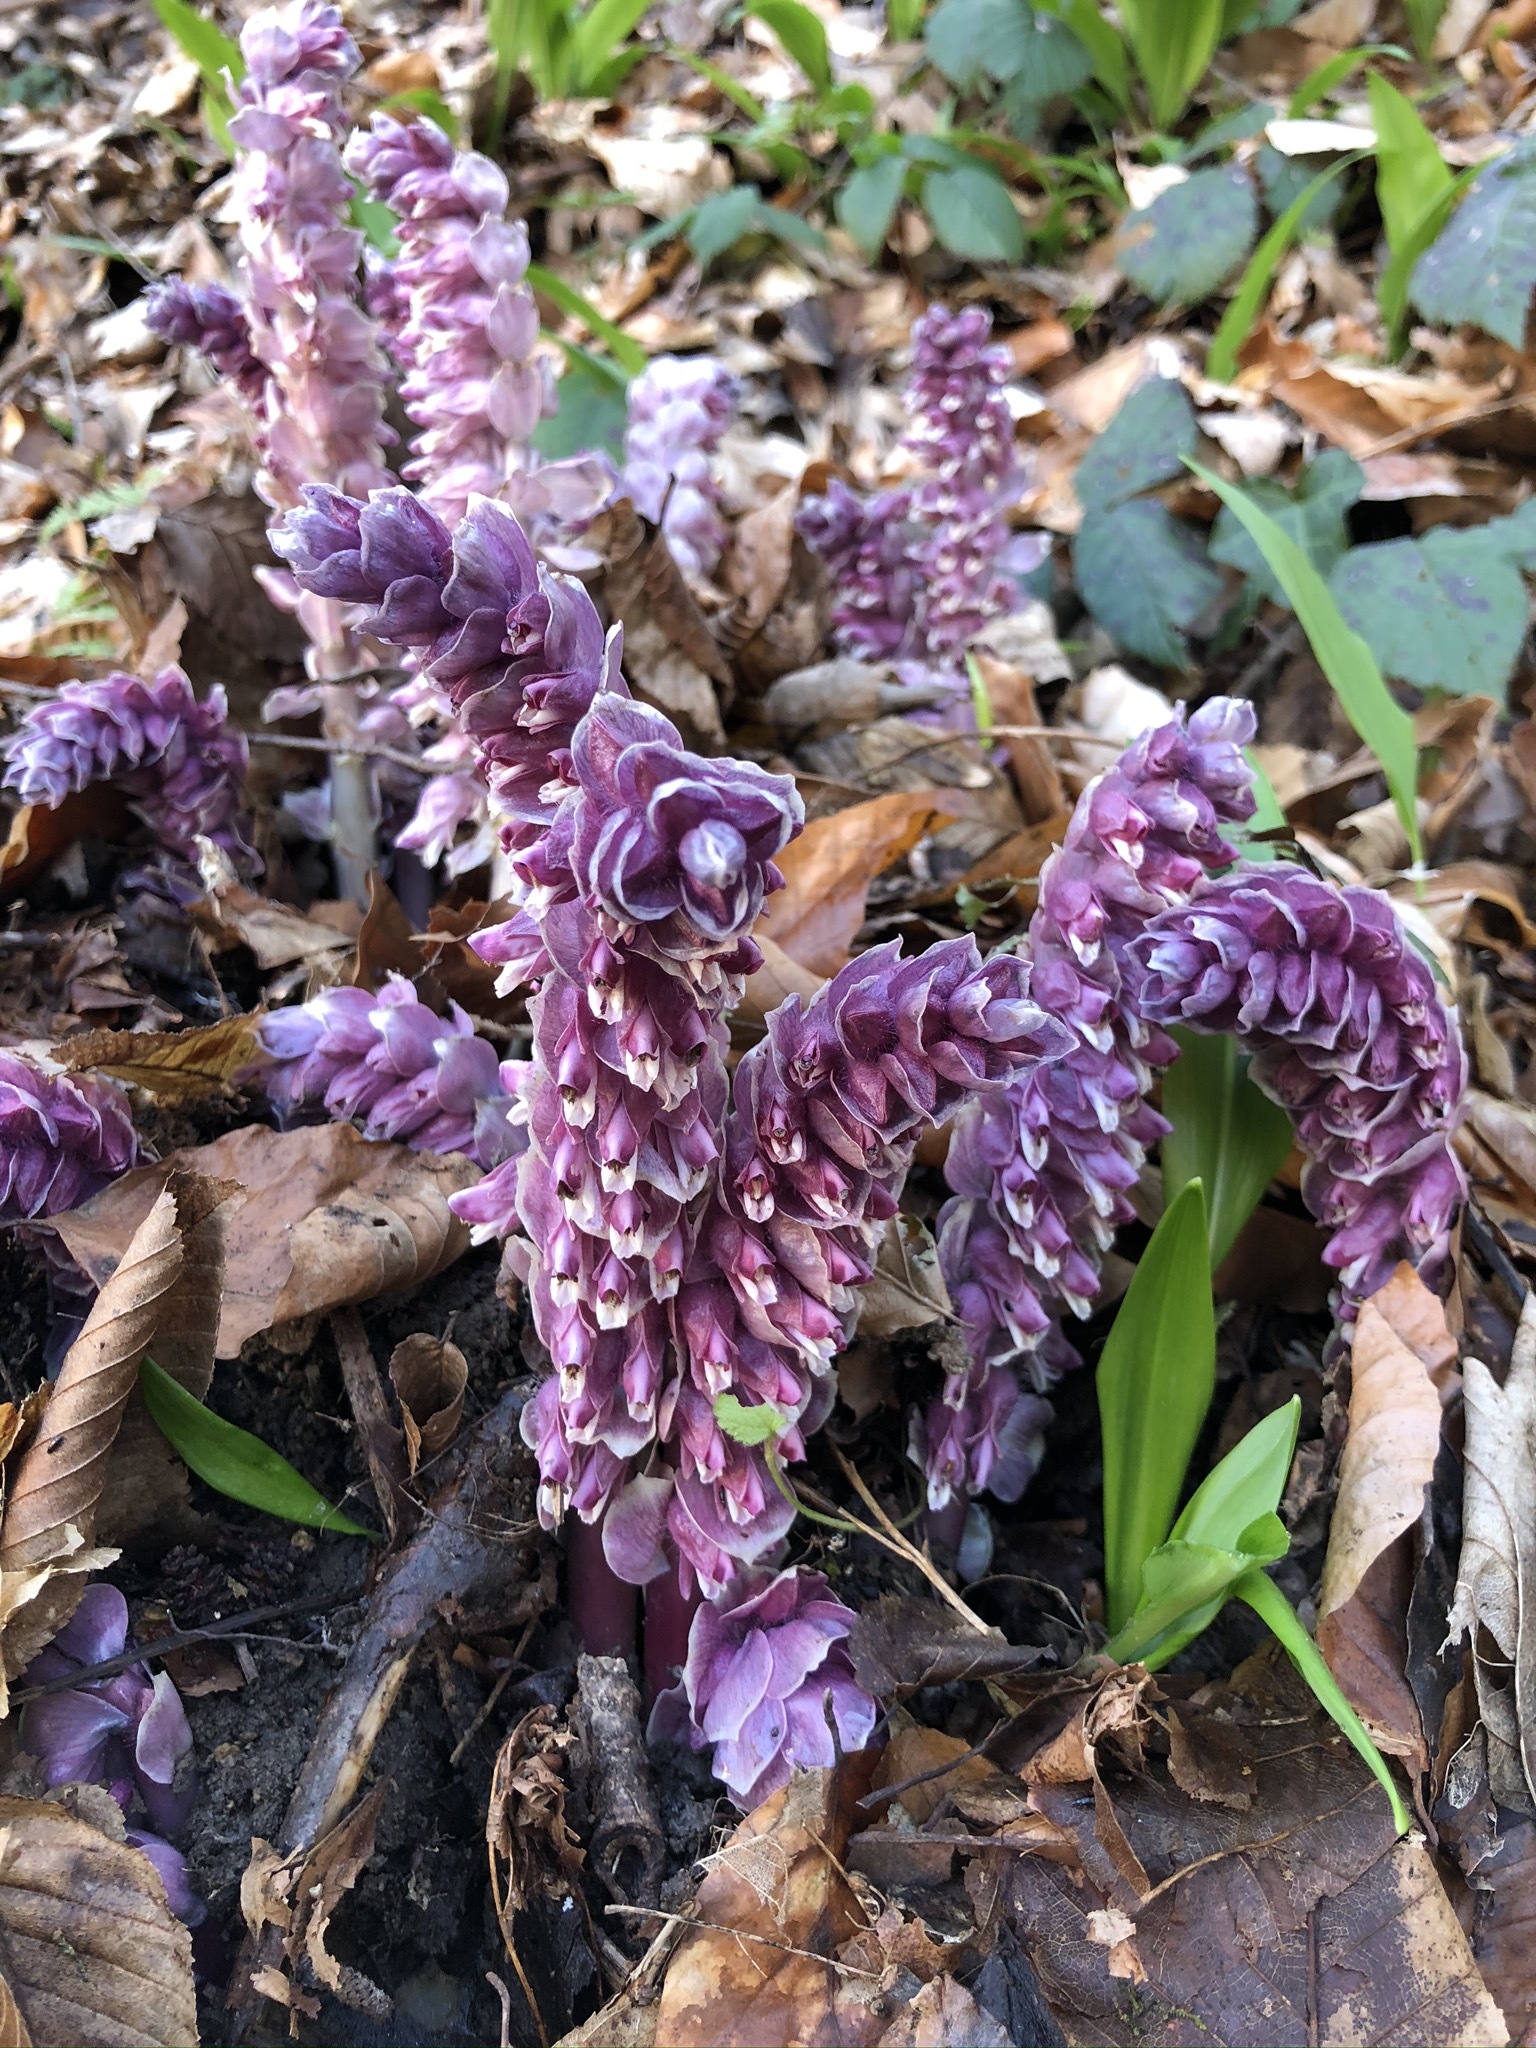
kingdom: Plantae
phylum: Tracheophyta
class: Magnoliopsida
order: Lamiales
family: Orobanchaceae
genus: Lathraea
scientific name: Lathraea squamaria
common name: Toothwort
